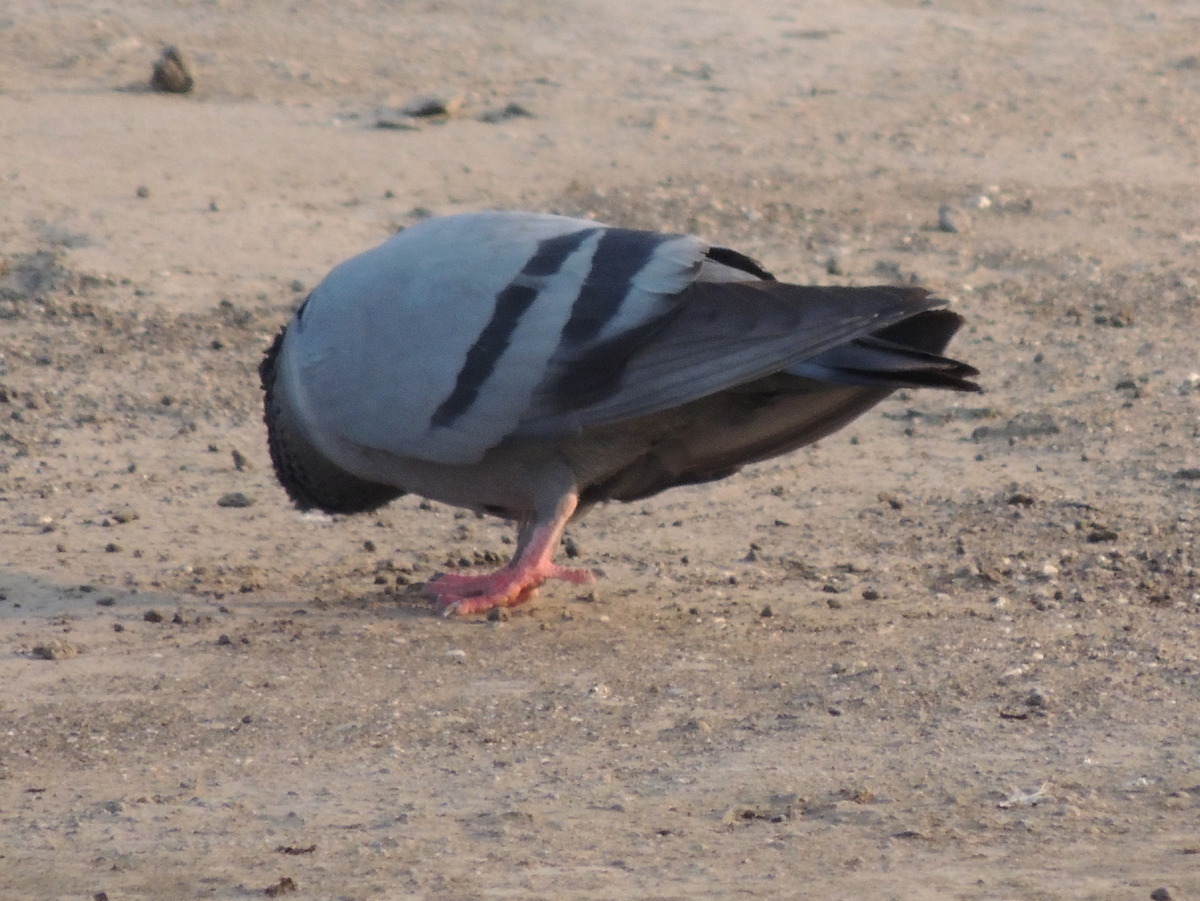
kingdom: Animalia
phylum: Chordata
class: Aves
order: Columbiformes
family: Columbidae
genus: Columba
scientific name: Columba livia
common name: Rock pigeon
